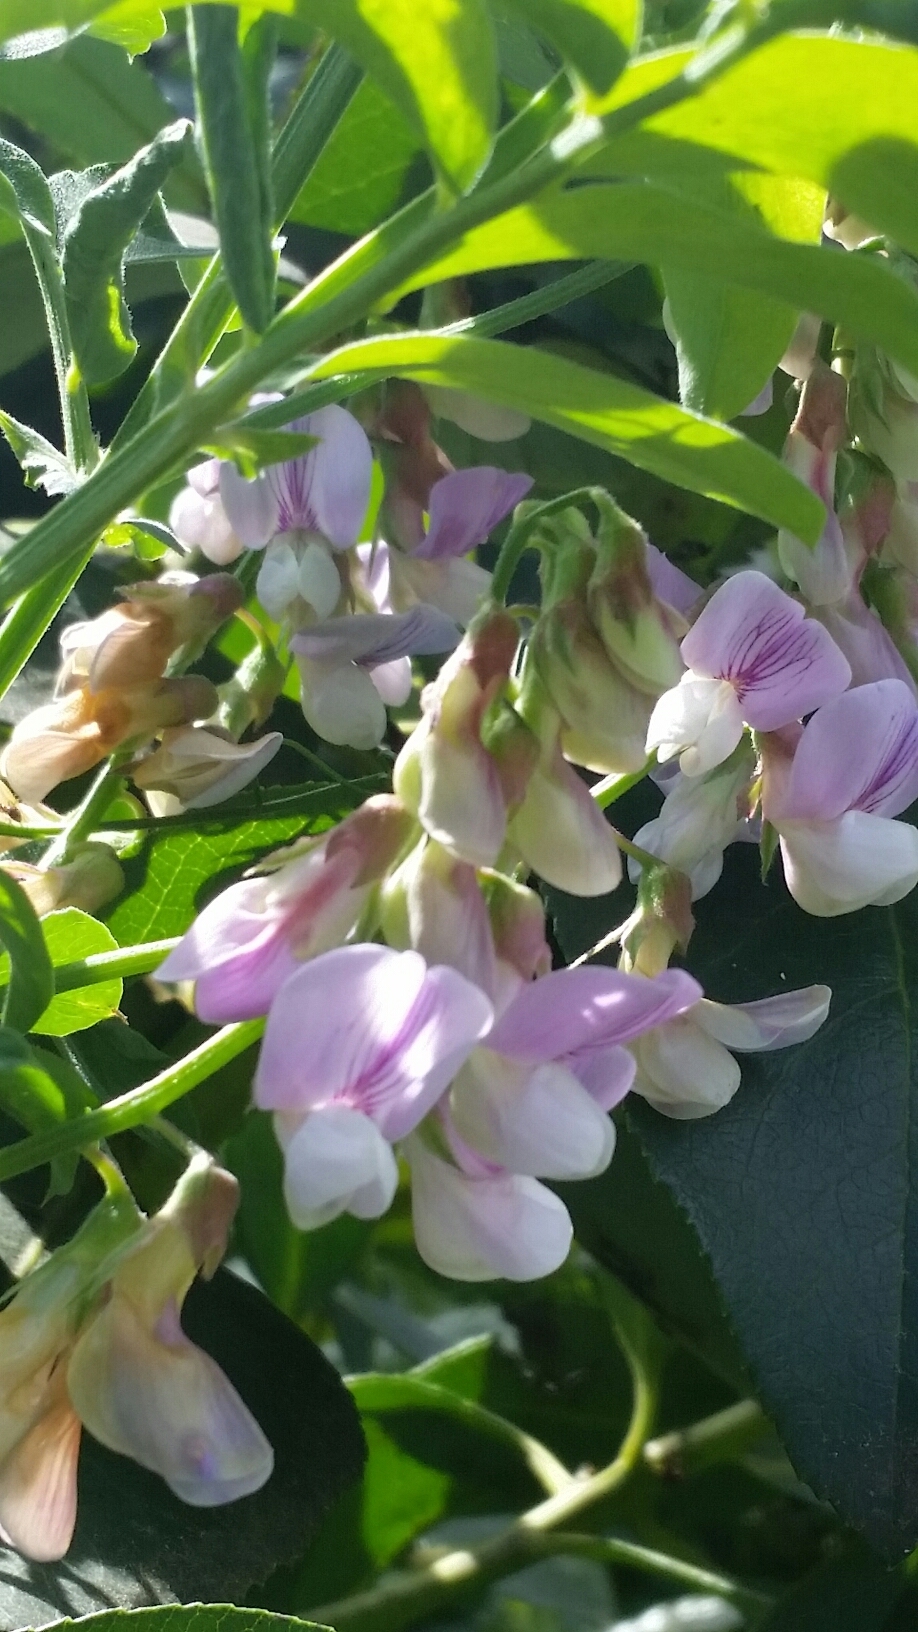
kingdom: Plantae
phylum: Tracheophyta
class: Magnoliopsida
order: Fabales
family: Fabaceae
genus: Lathyrus
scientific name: Lathyrus vestitus
